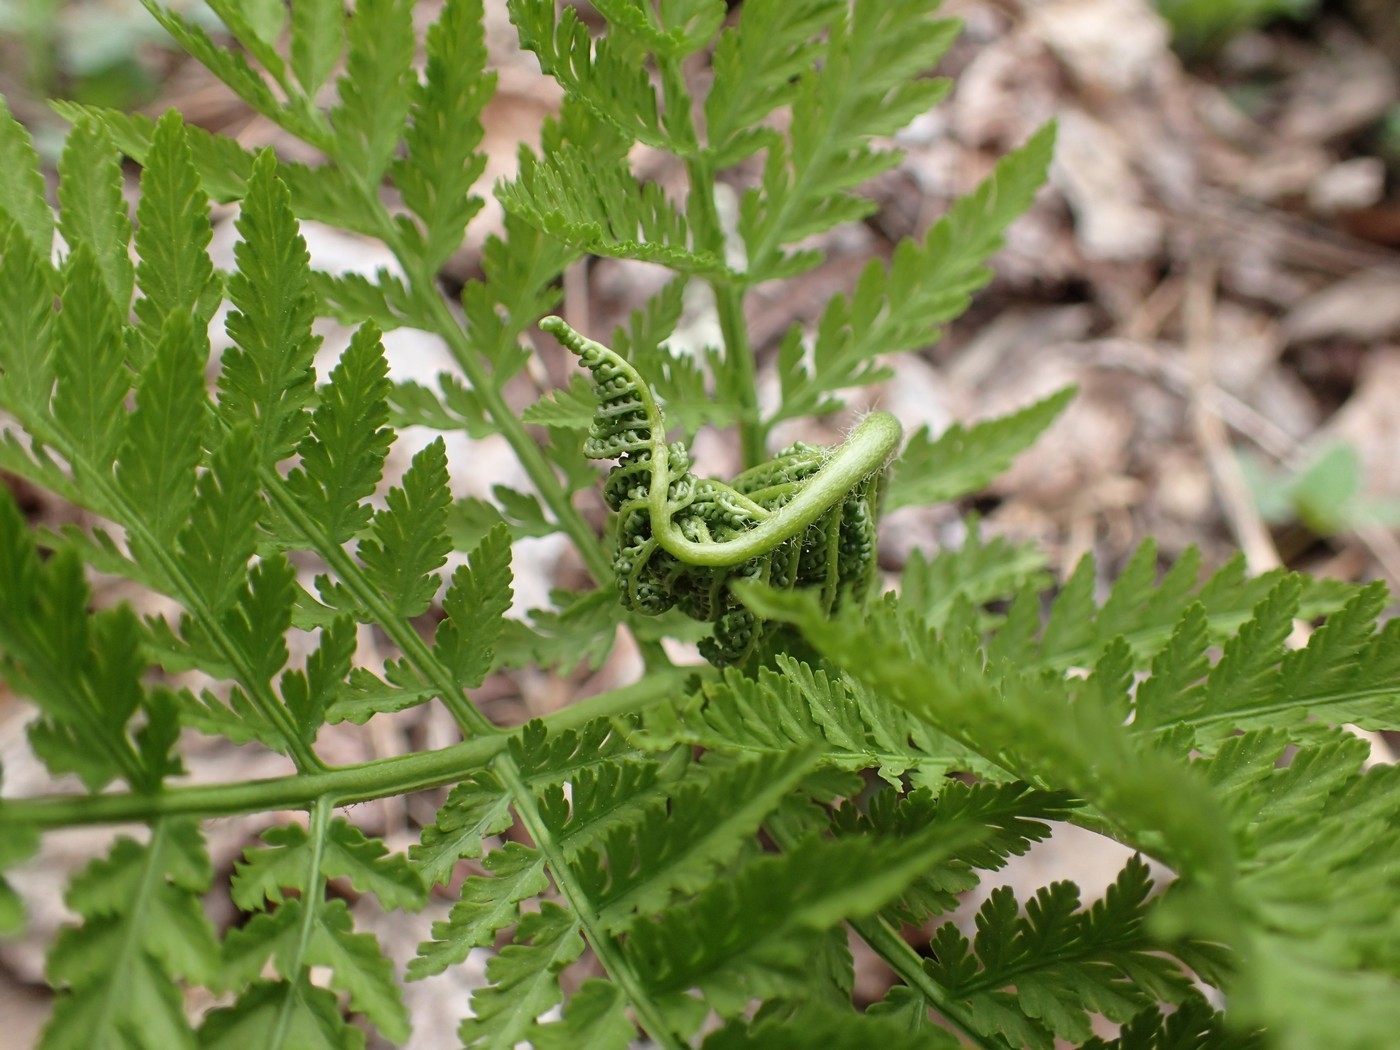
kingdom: Plantae
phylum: Tracheophyta
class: Polypodiopsida
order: Ophioglossales
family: Ophioglossaceae
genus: Botrypus
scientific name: Botrypus virginianus
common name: Common grapefern
